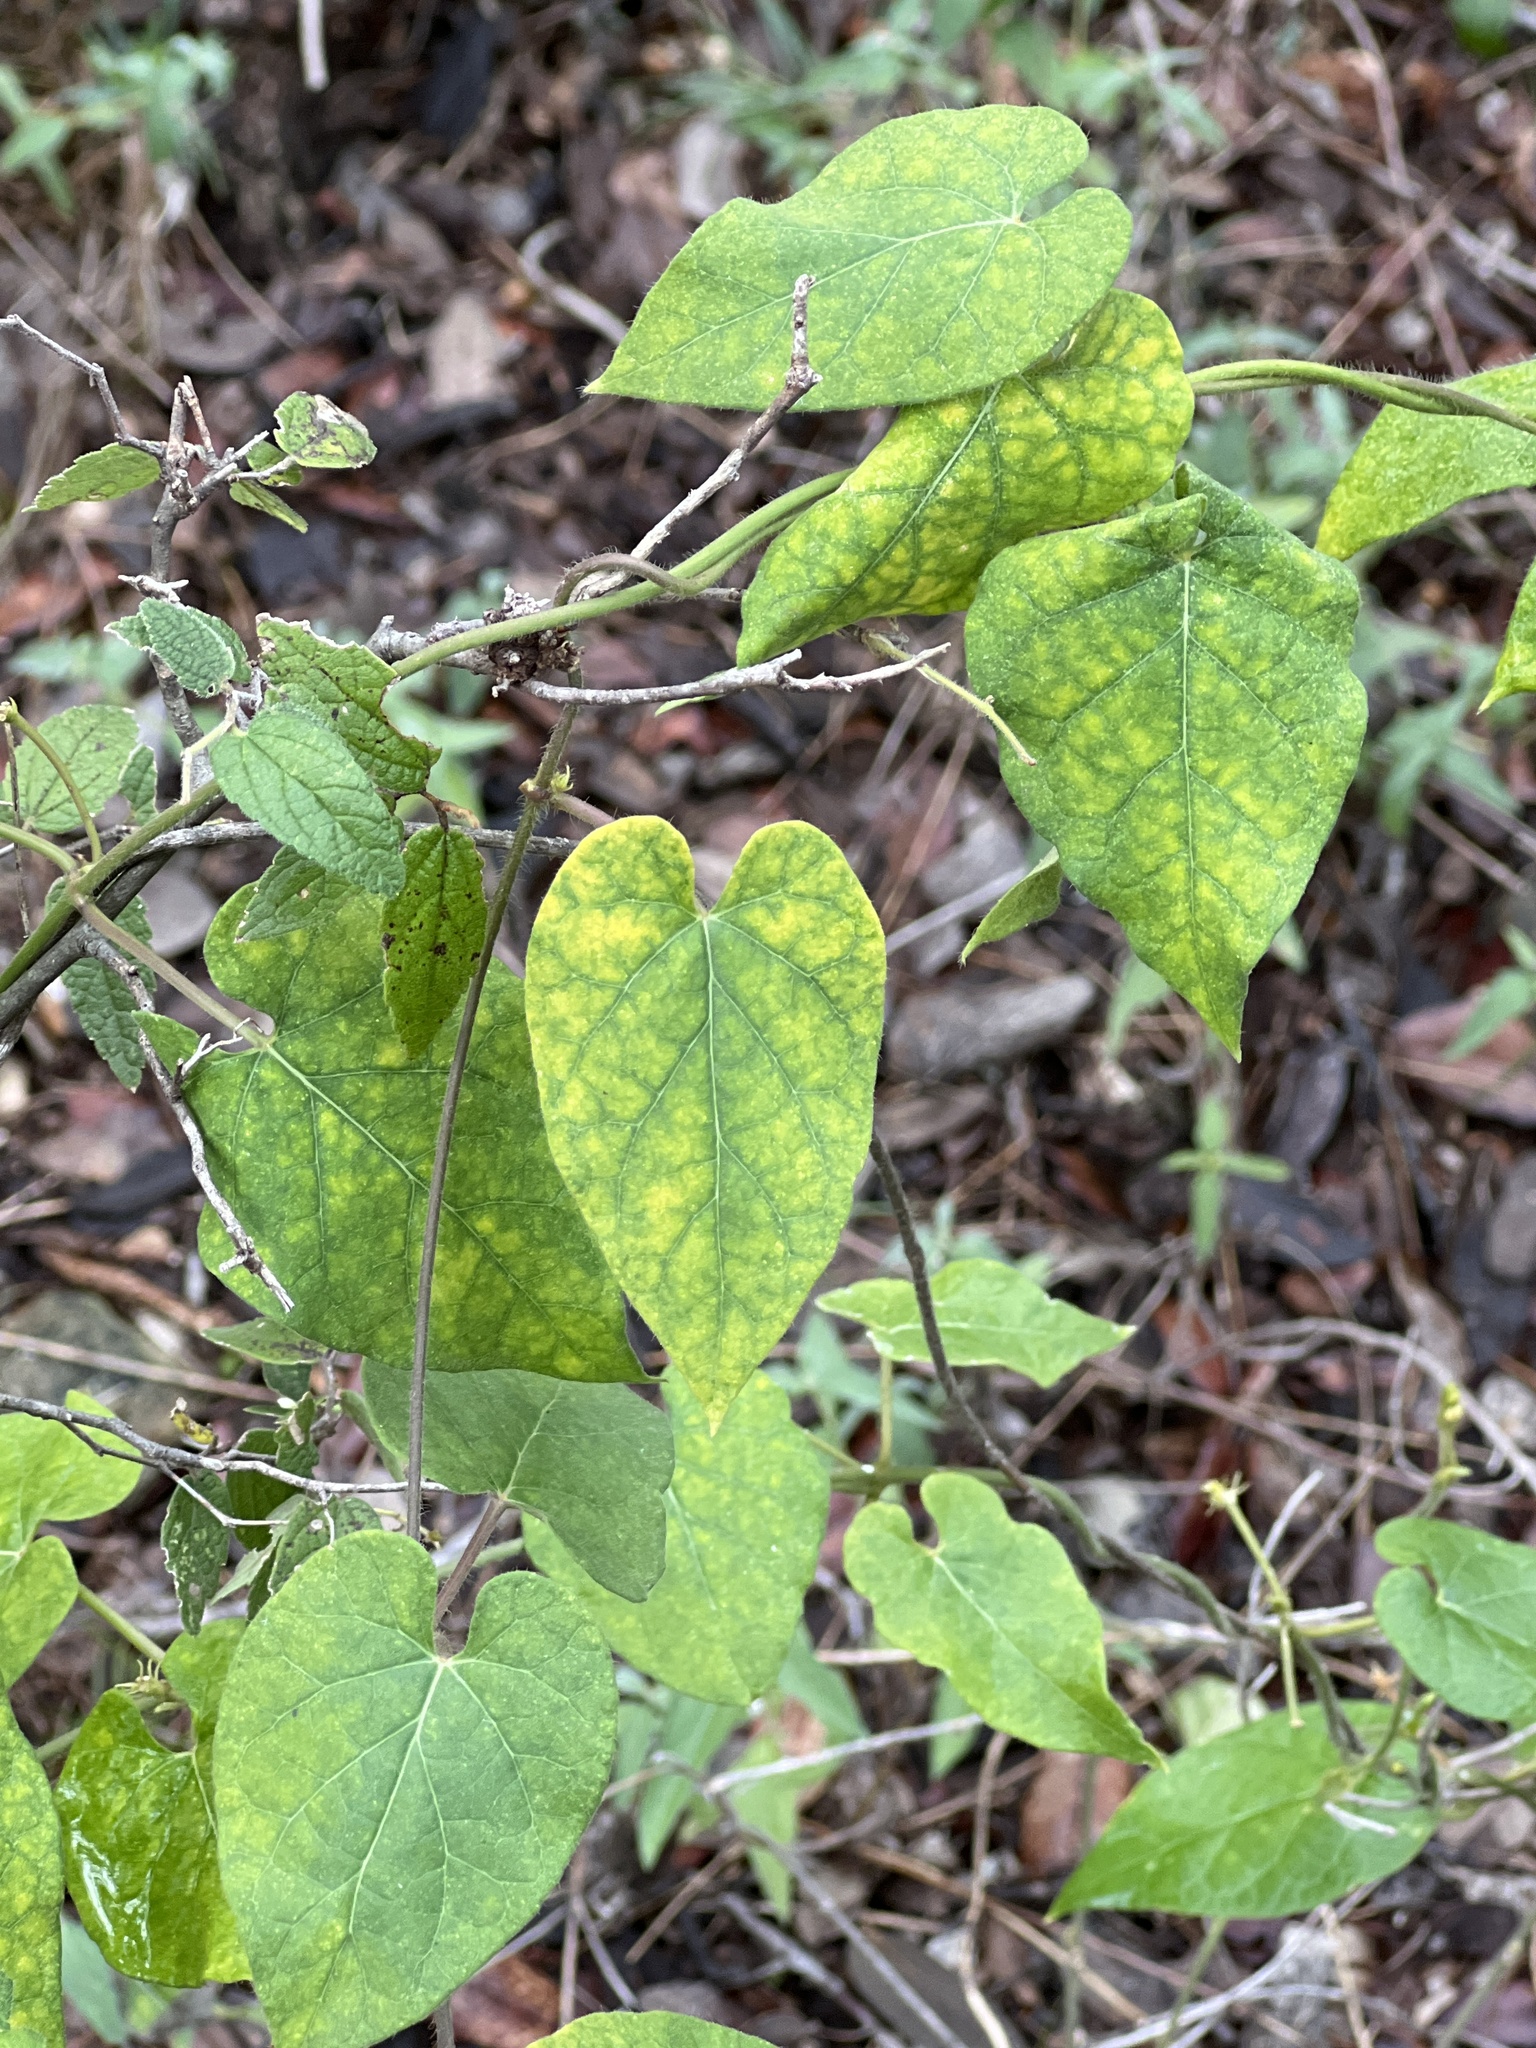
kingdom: Plantae
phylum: Tracheophyta
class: Magnoliopsida
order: Gentianales
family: Apocynaceae
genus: Dictyanthus
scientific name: Dictyanthus reticulatus
